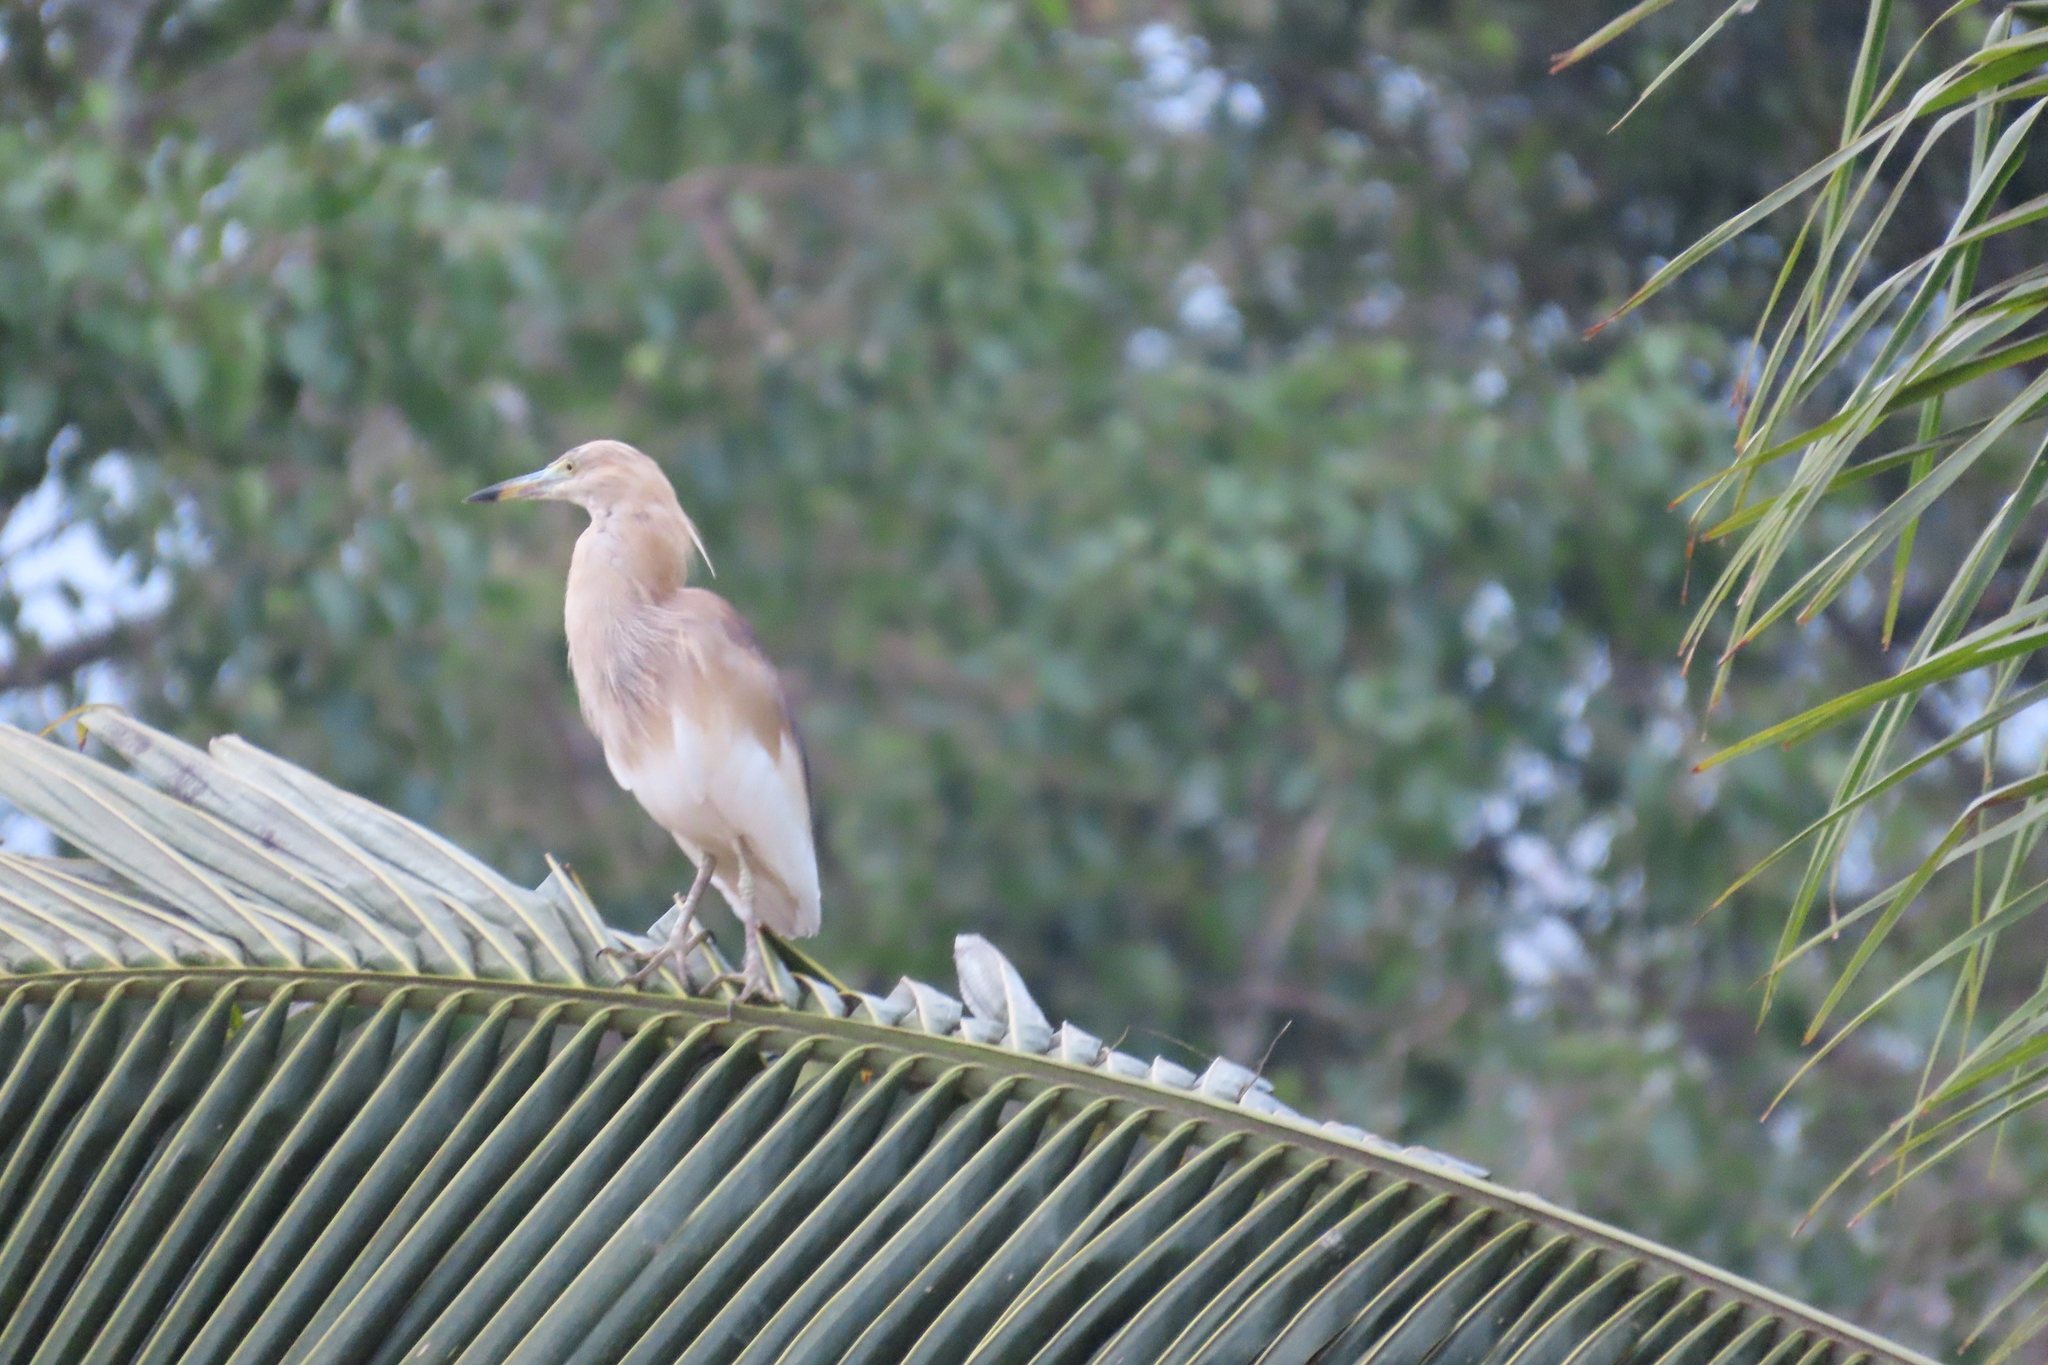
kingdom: Animalia
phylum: Chordata
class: Aves
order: Pelecaniformes
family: Ardeidae
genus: Ardeola
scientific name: Ardeola grayii
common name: Indian pond heron
